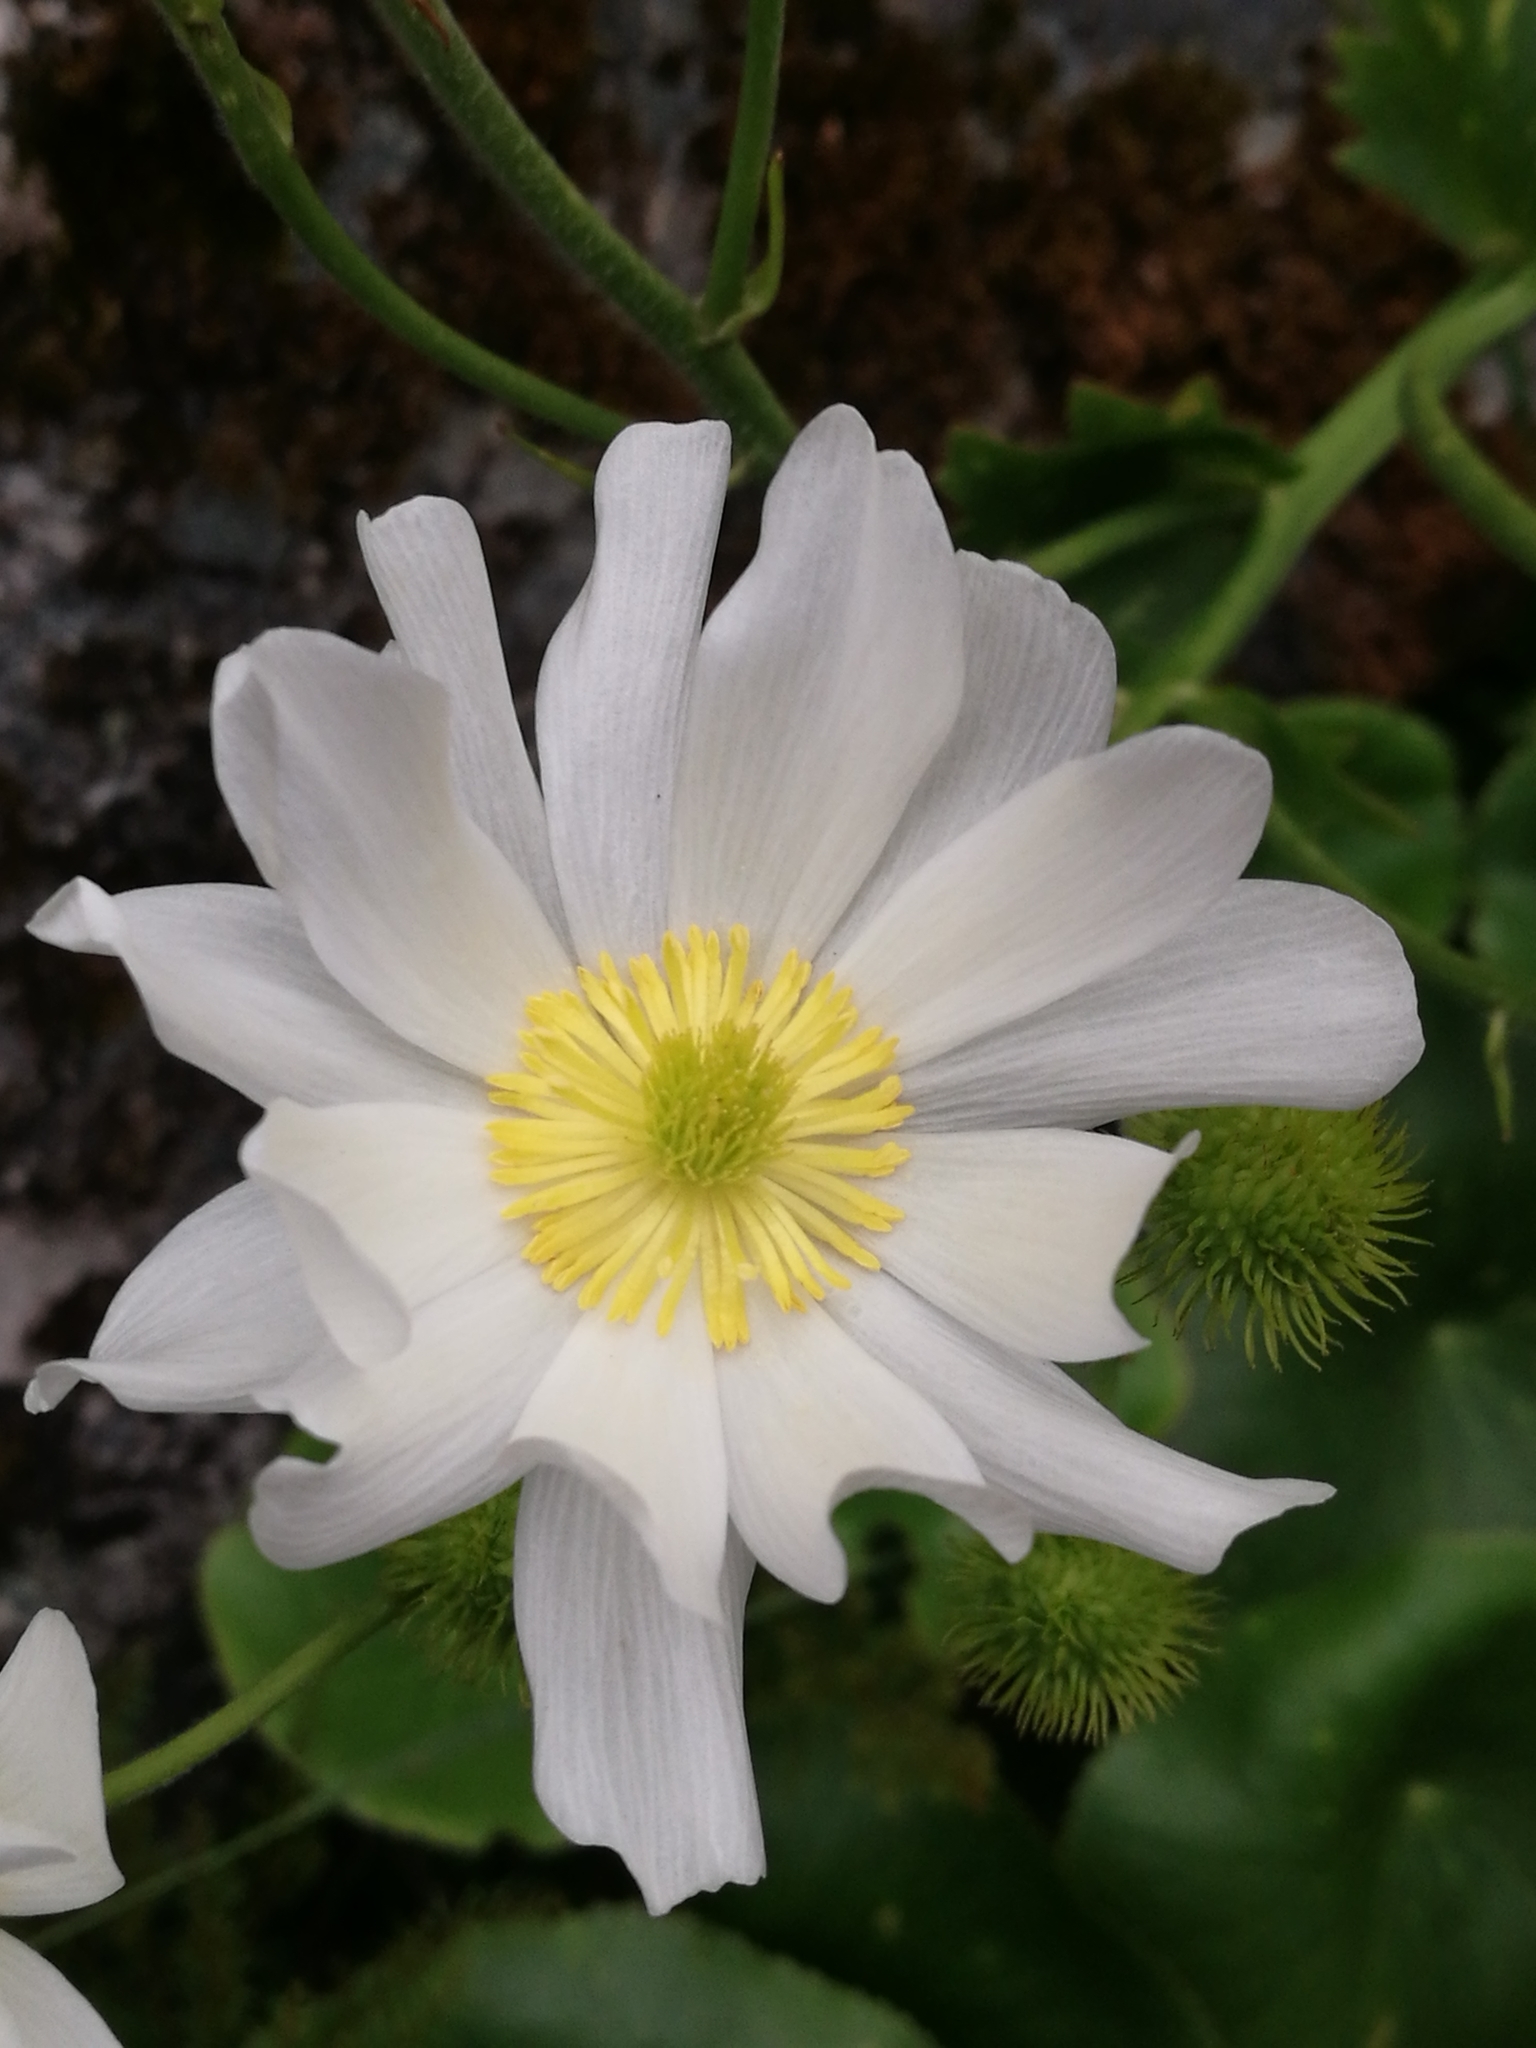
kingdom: Plantae
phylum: Tracheophyta
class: Magnoliopsida
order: Ranunculales
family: Ranunculaceae
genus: Ranunculus
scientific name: Ranunculus lyallii
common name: Mountain-lily
